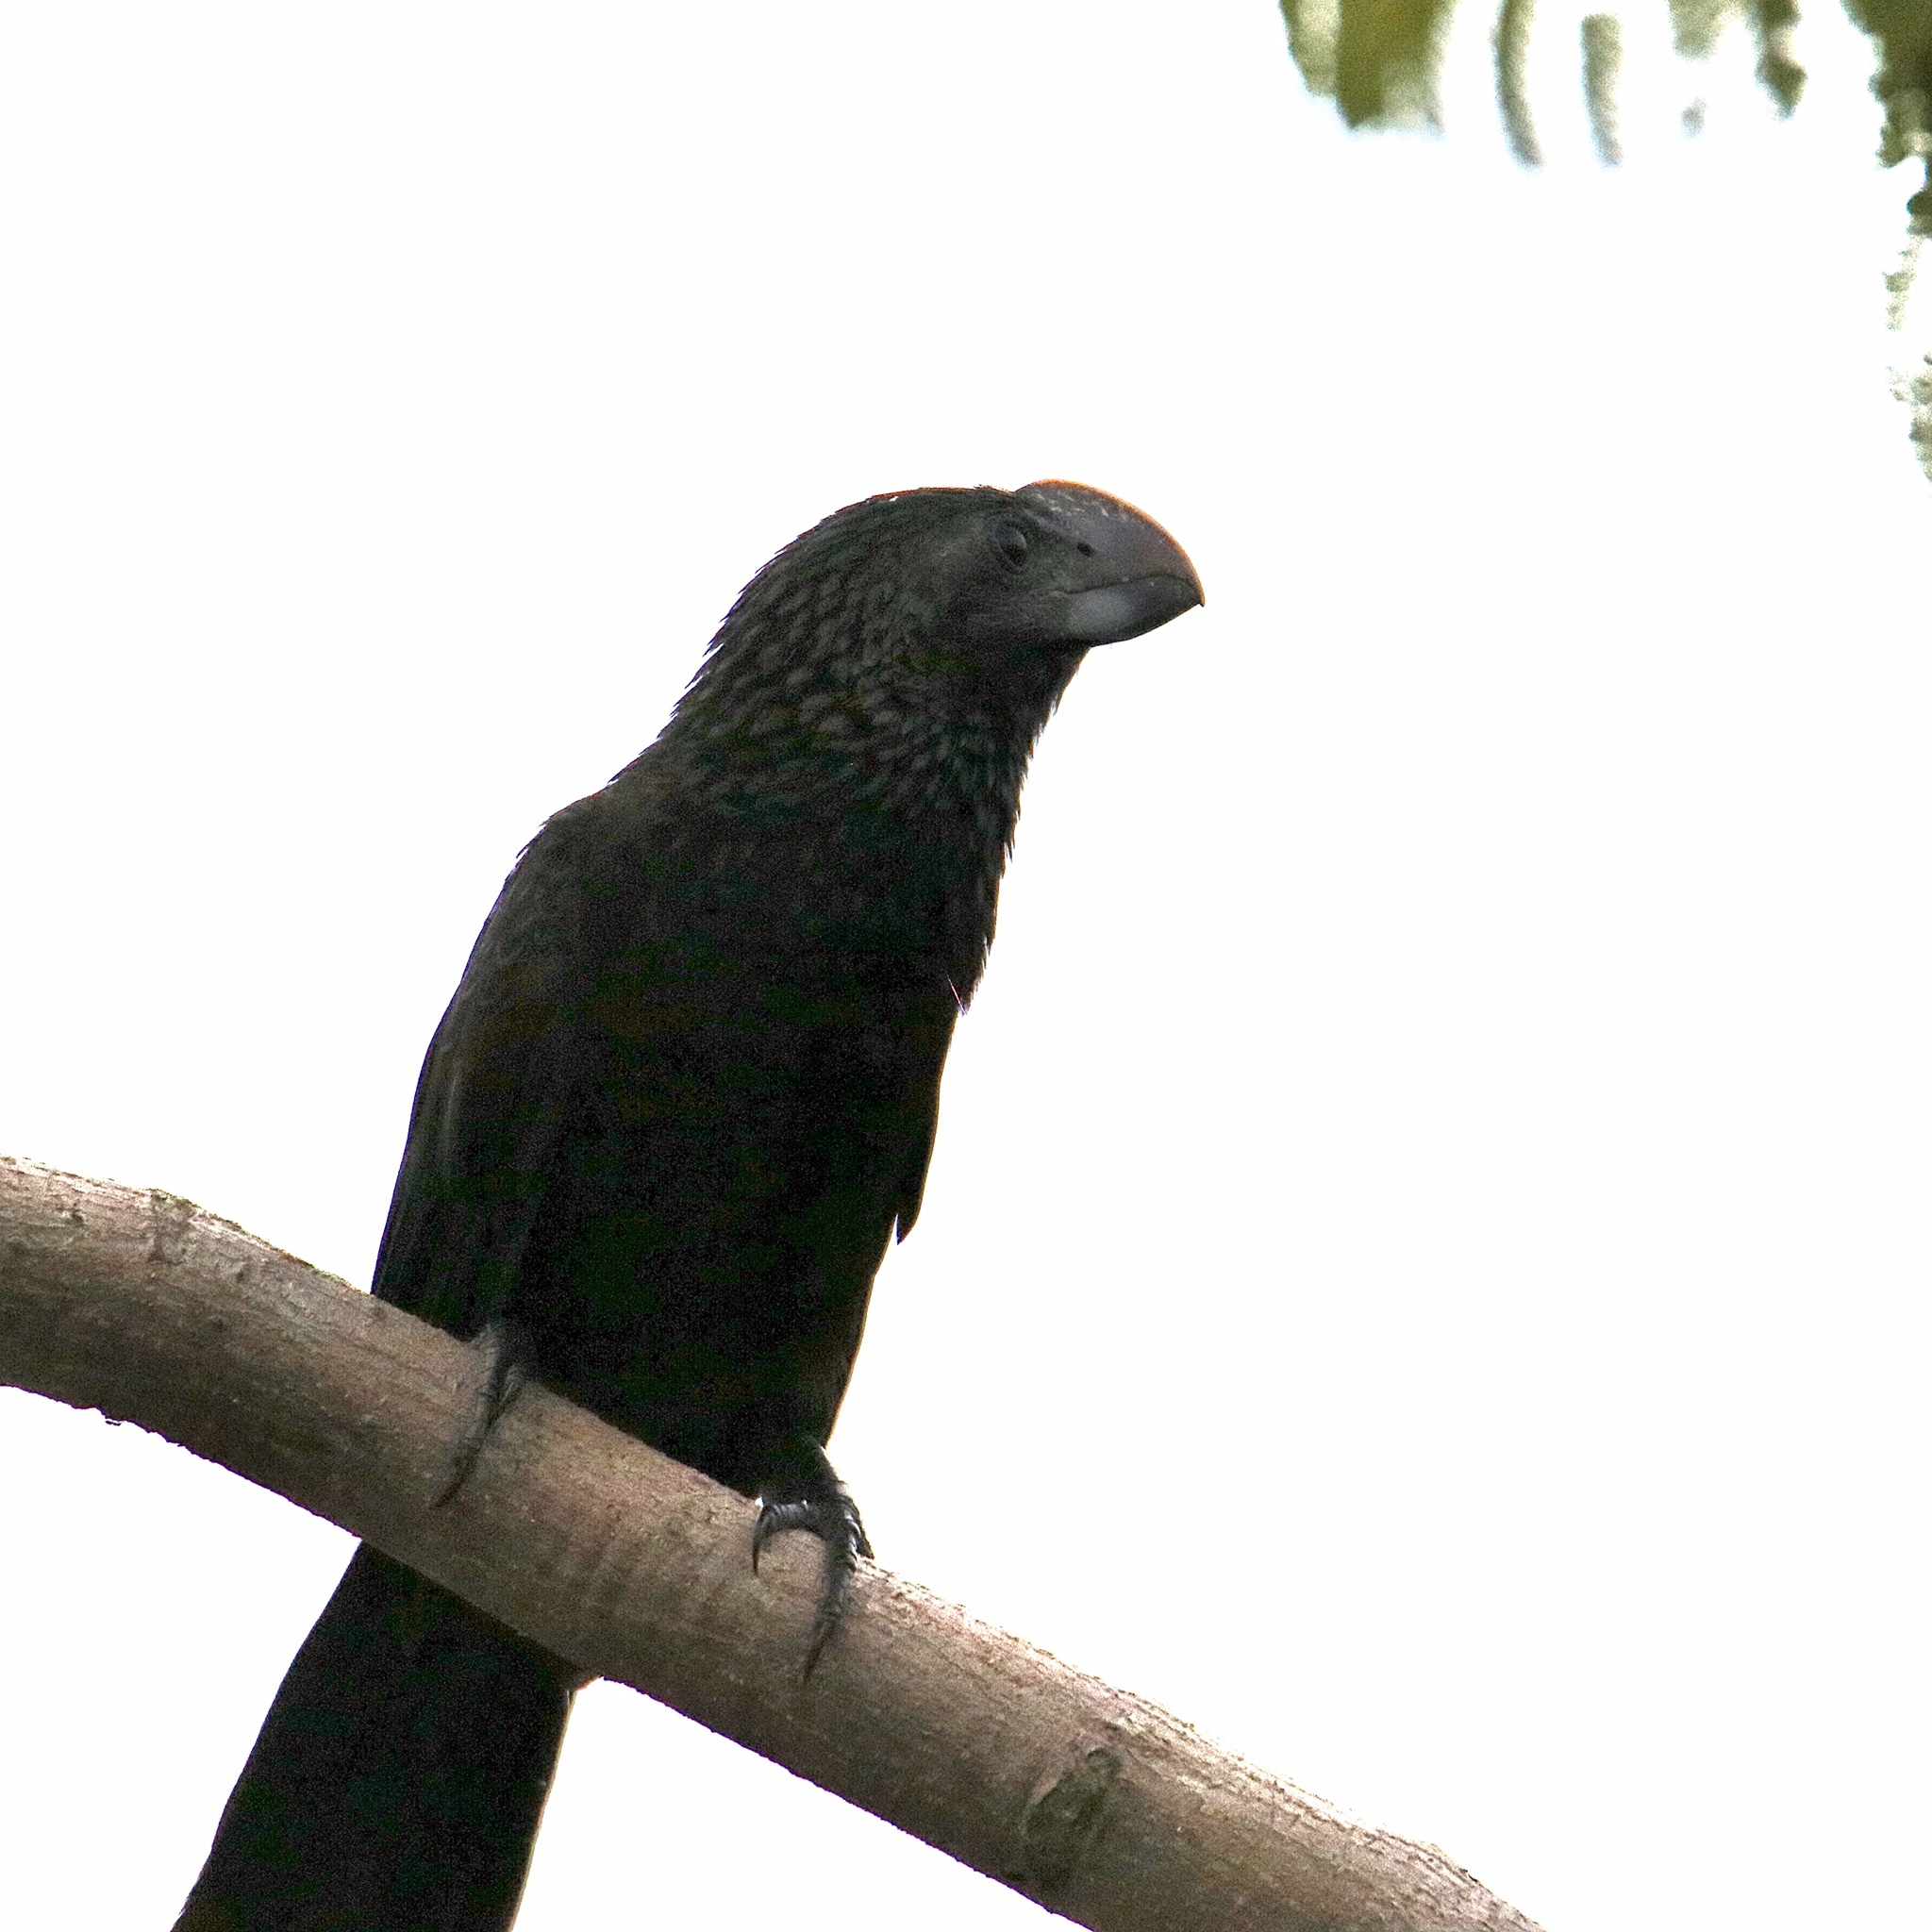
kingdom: Animalia
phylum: Chordata
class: Aves
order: Cuculiformes
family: Cuculidae
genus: Crotophaga
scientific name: Crotophaga ani
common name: Smooth-billed ani
